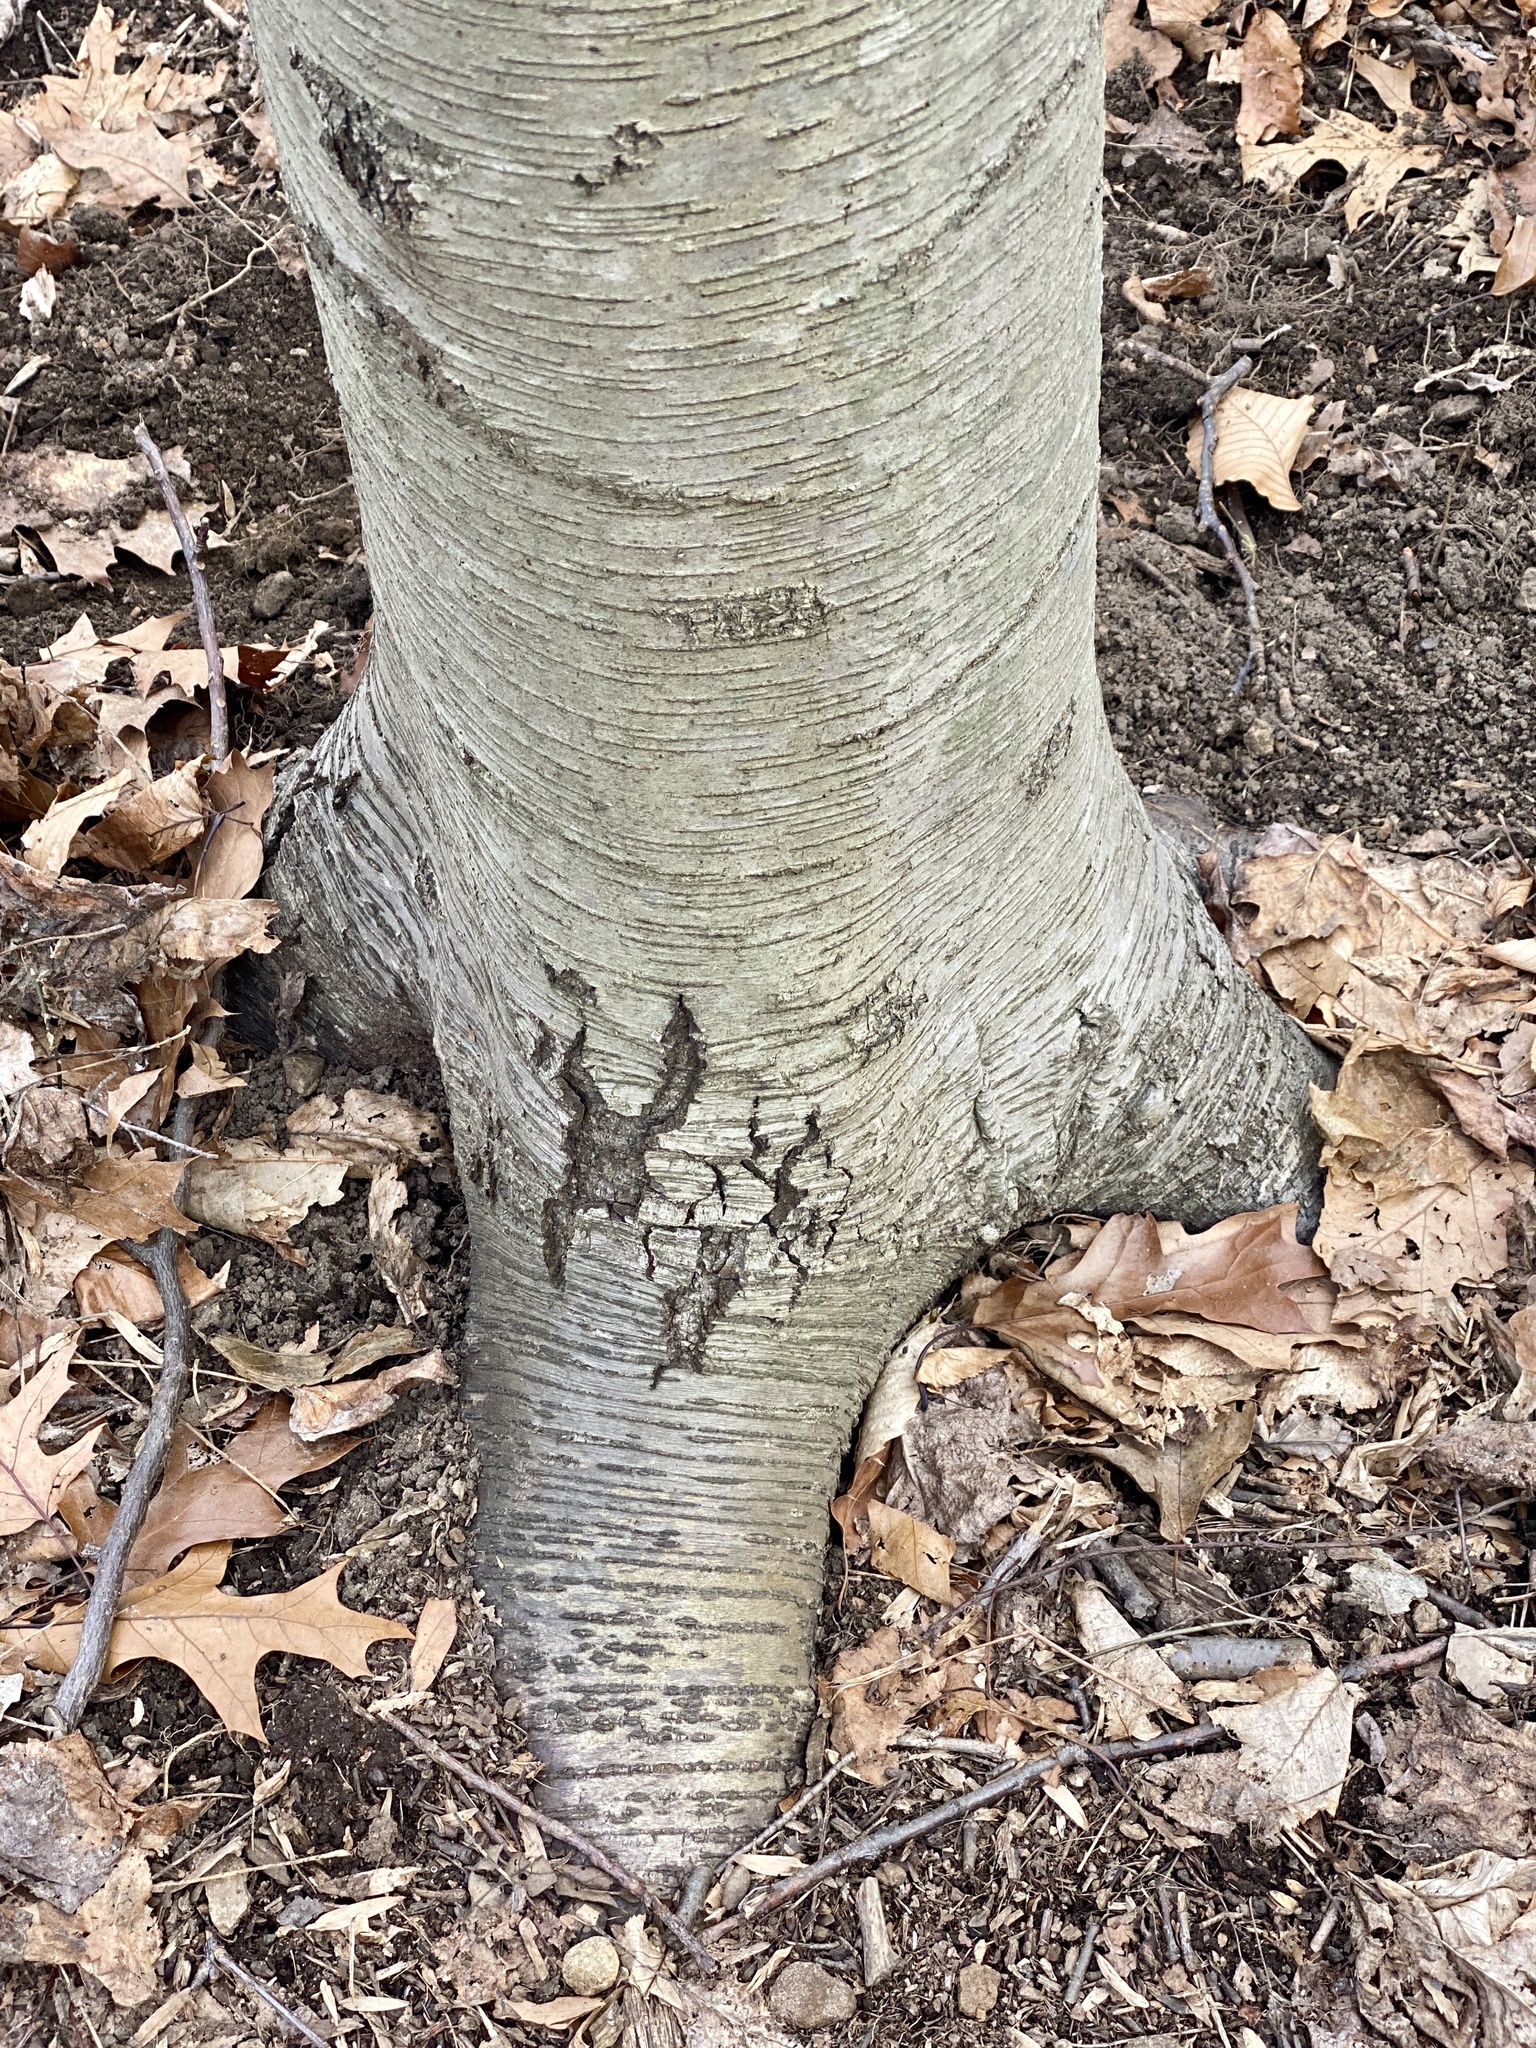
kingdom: Plantae
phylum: Tracheophyta
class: Magnoliopsida
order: Fagales
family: Betulaceae
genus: Betula
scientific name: Betula lenta
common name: Black birch
